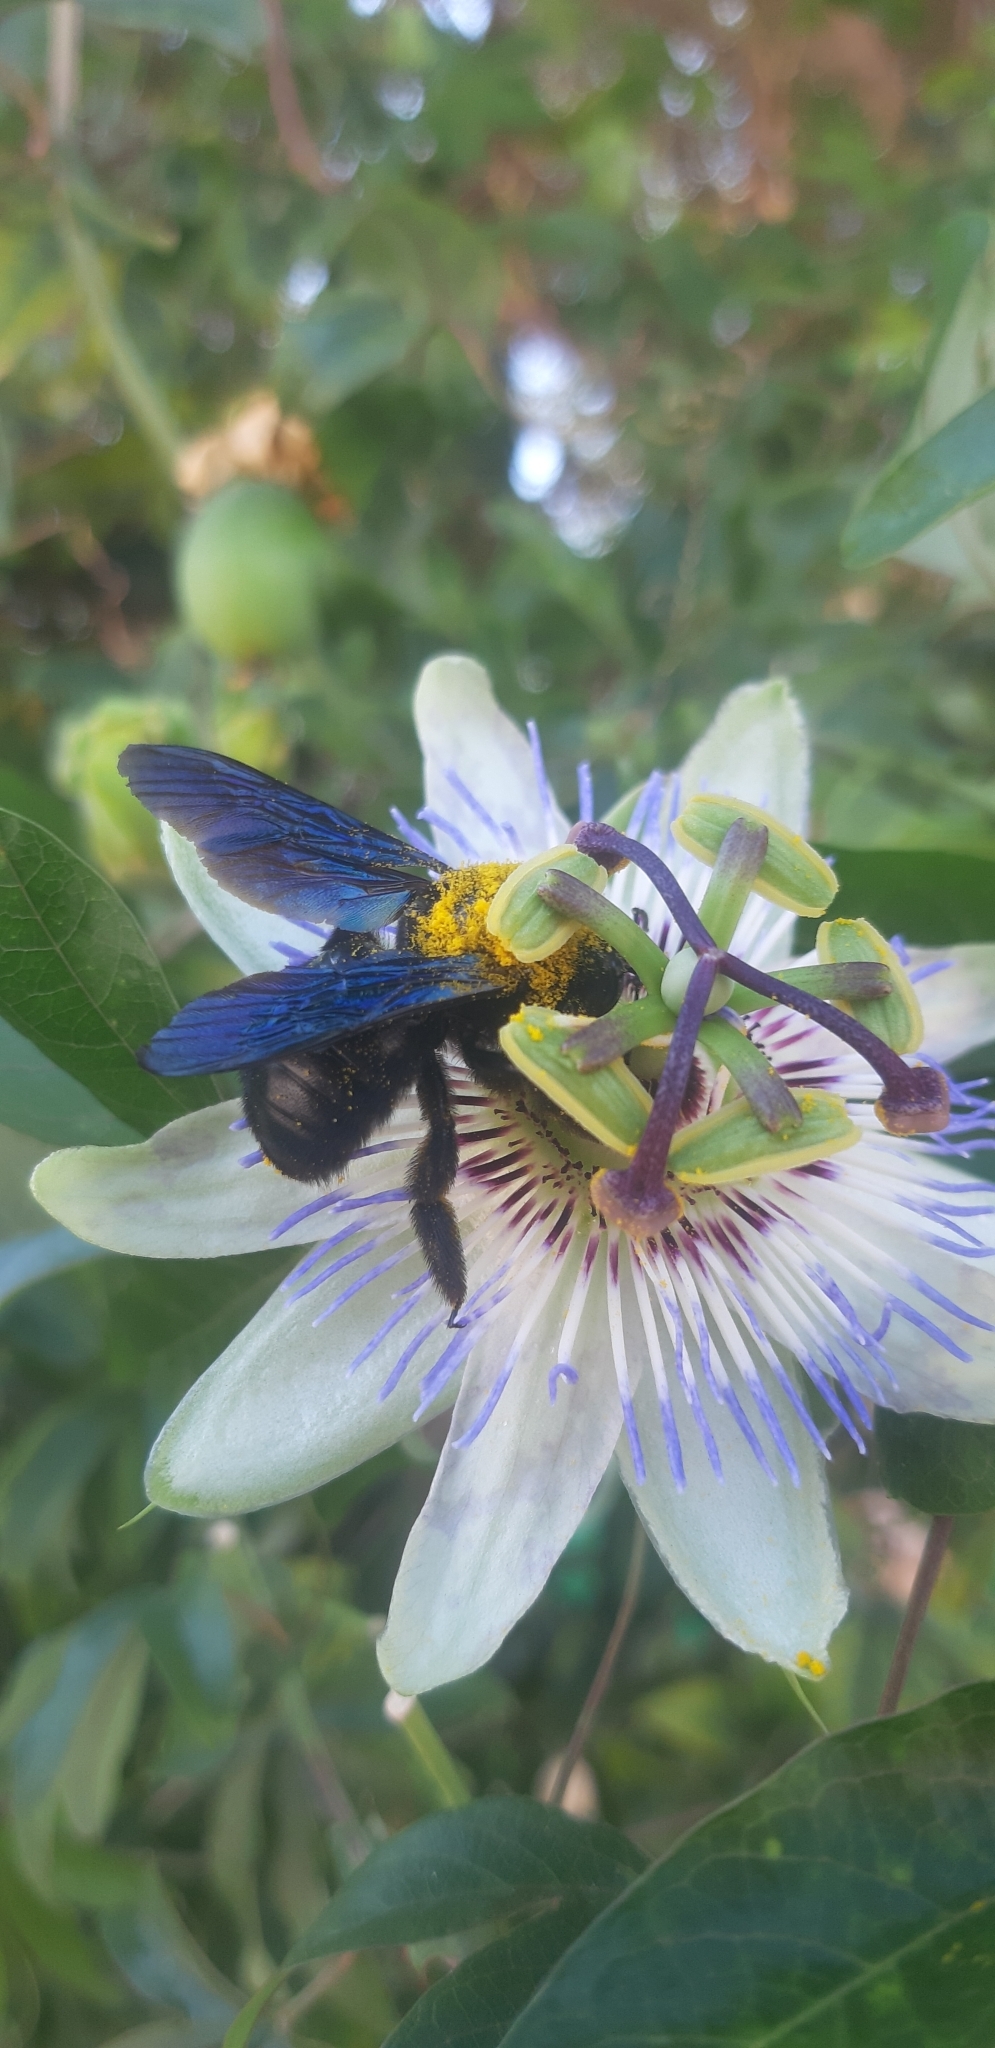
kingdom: Animalia
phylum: Arthropoda
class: Insecta
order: Hymenoptera
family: Apidae
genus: Xylocopa
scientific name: Xylocopa violacea
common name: Violet carpenter bee
